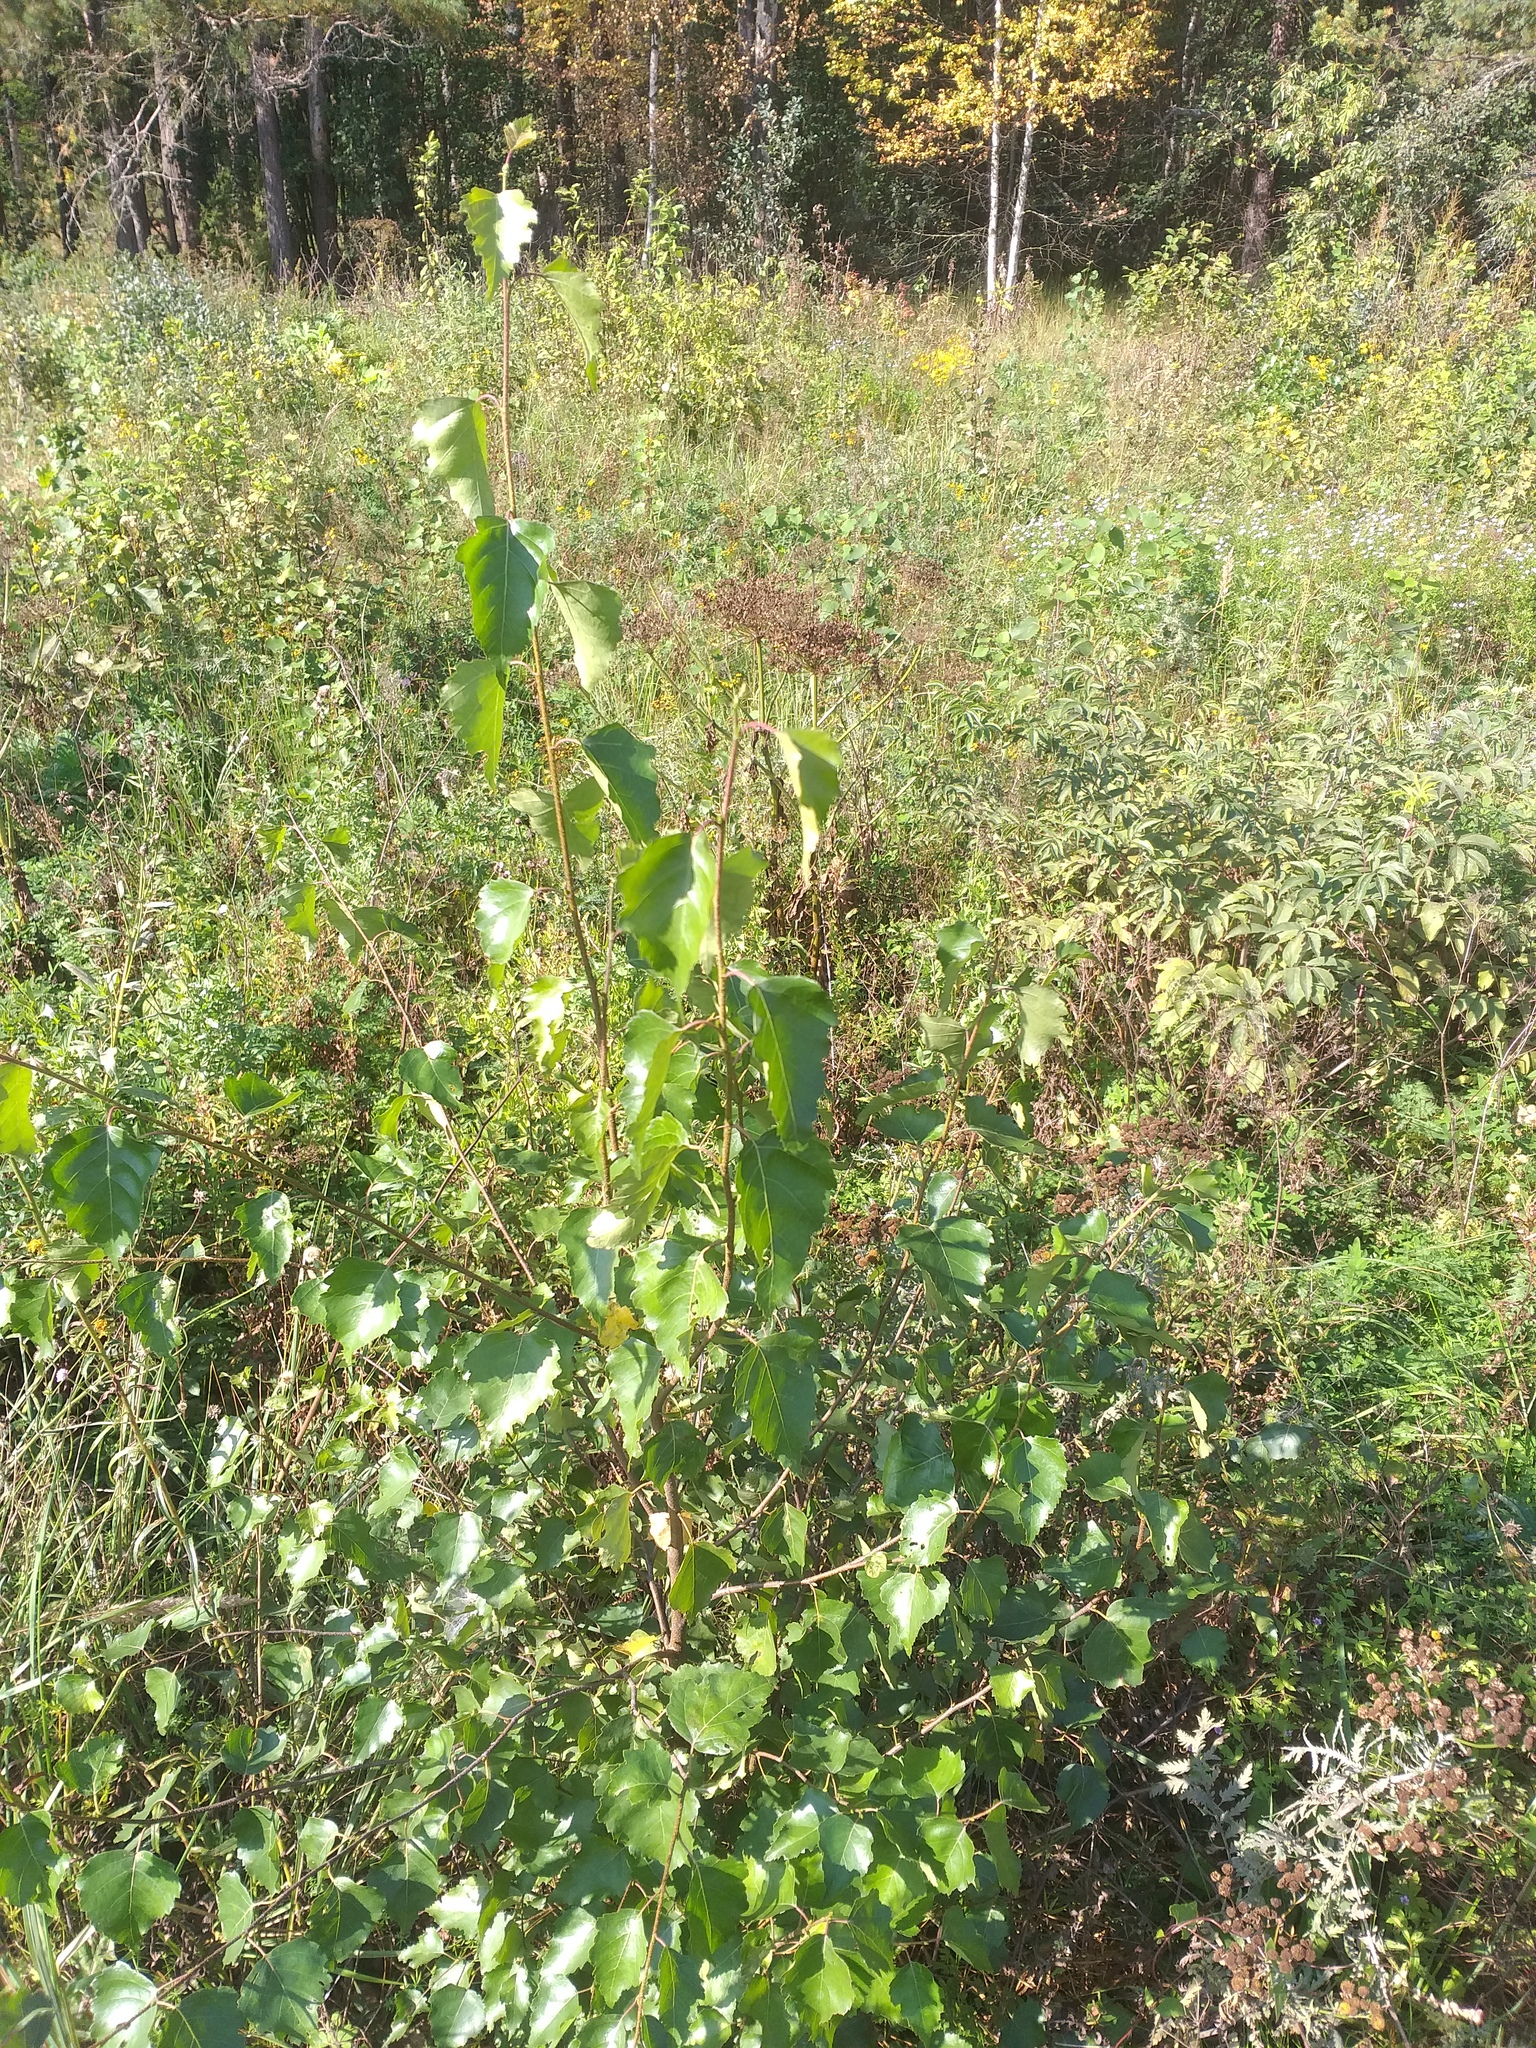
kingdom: Plantae
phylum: Tracheophyta
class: Magnoliopsida
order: Fagales
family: Betulaceae
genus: Betula
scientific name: Betula pendula
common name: Silver birch
